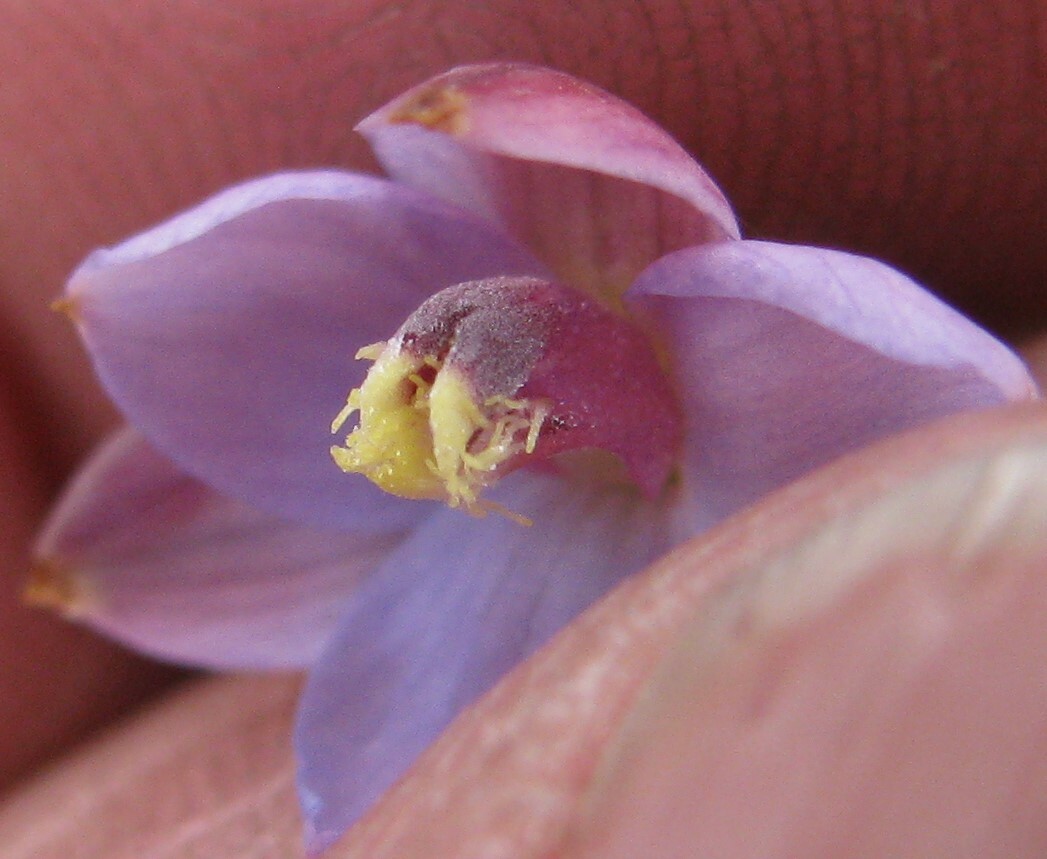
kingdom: Plantae
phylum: Tracheophyta
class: Liliopsida
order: Asparagales
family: Orchidaceae
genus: Thelymitra
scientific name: Thelymitra mucida
